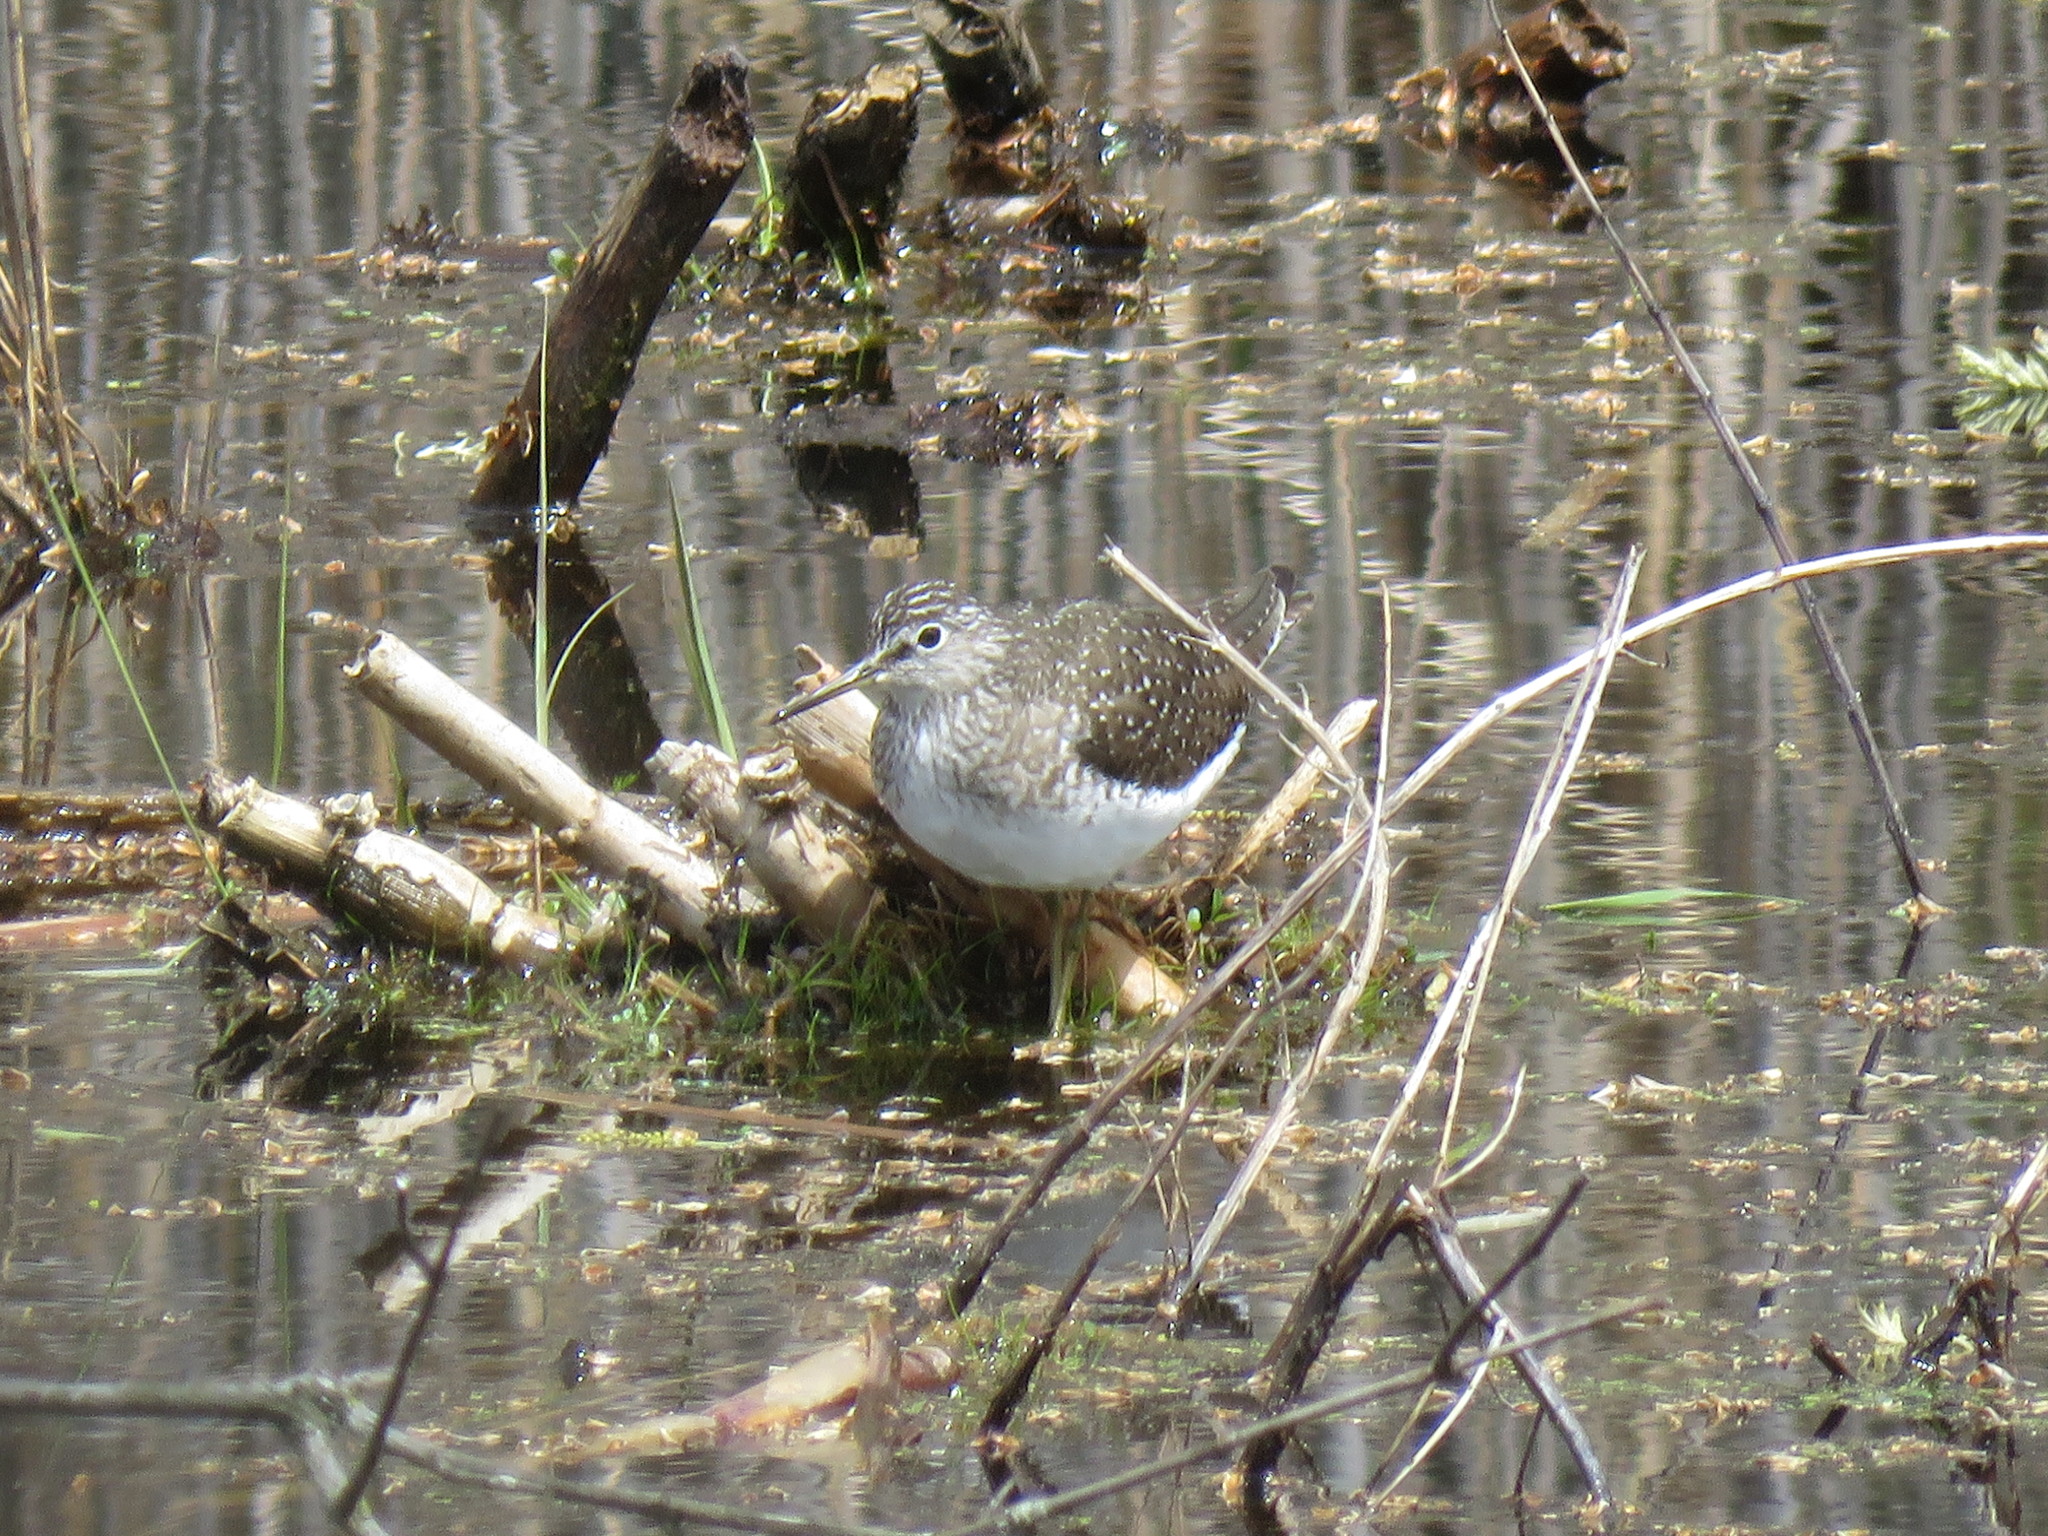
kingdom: Animalia
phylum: Chordata
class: Aves
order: Charadriiformes
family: Scolopacidae
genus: Tringa
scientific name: Tringa solitaria
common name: Solitary sandpiper
